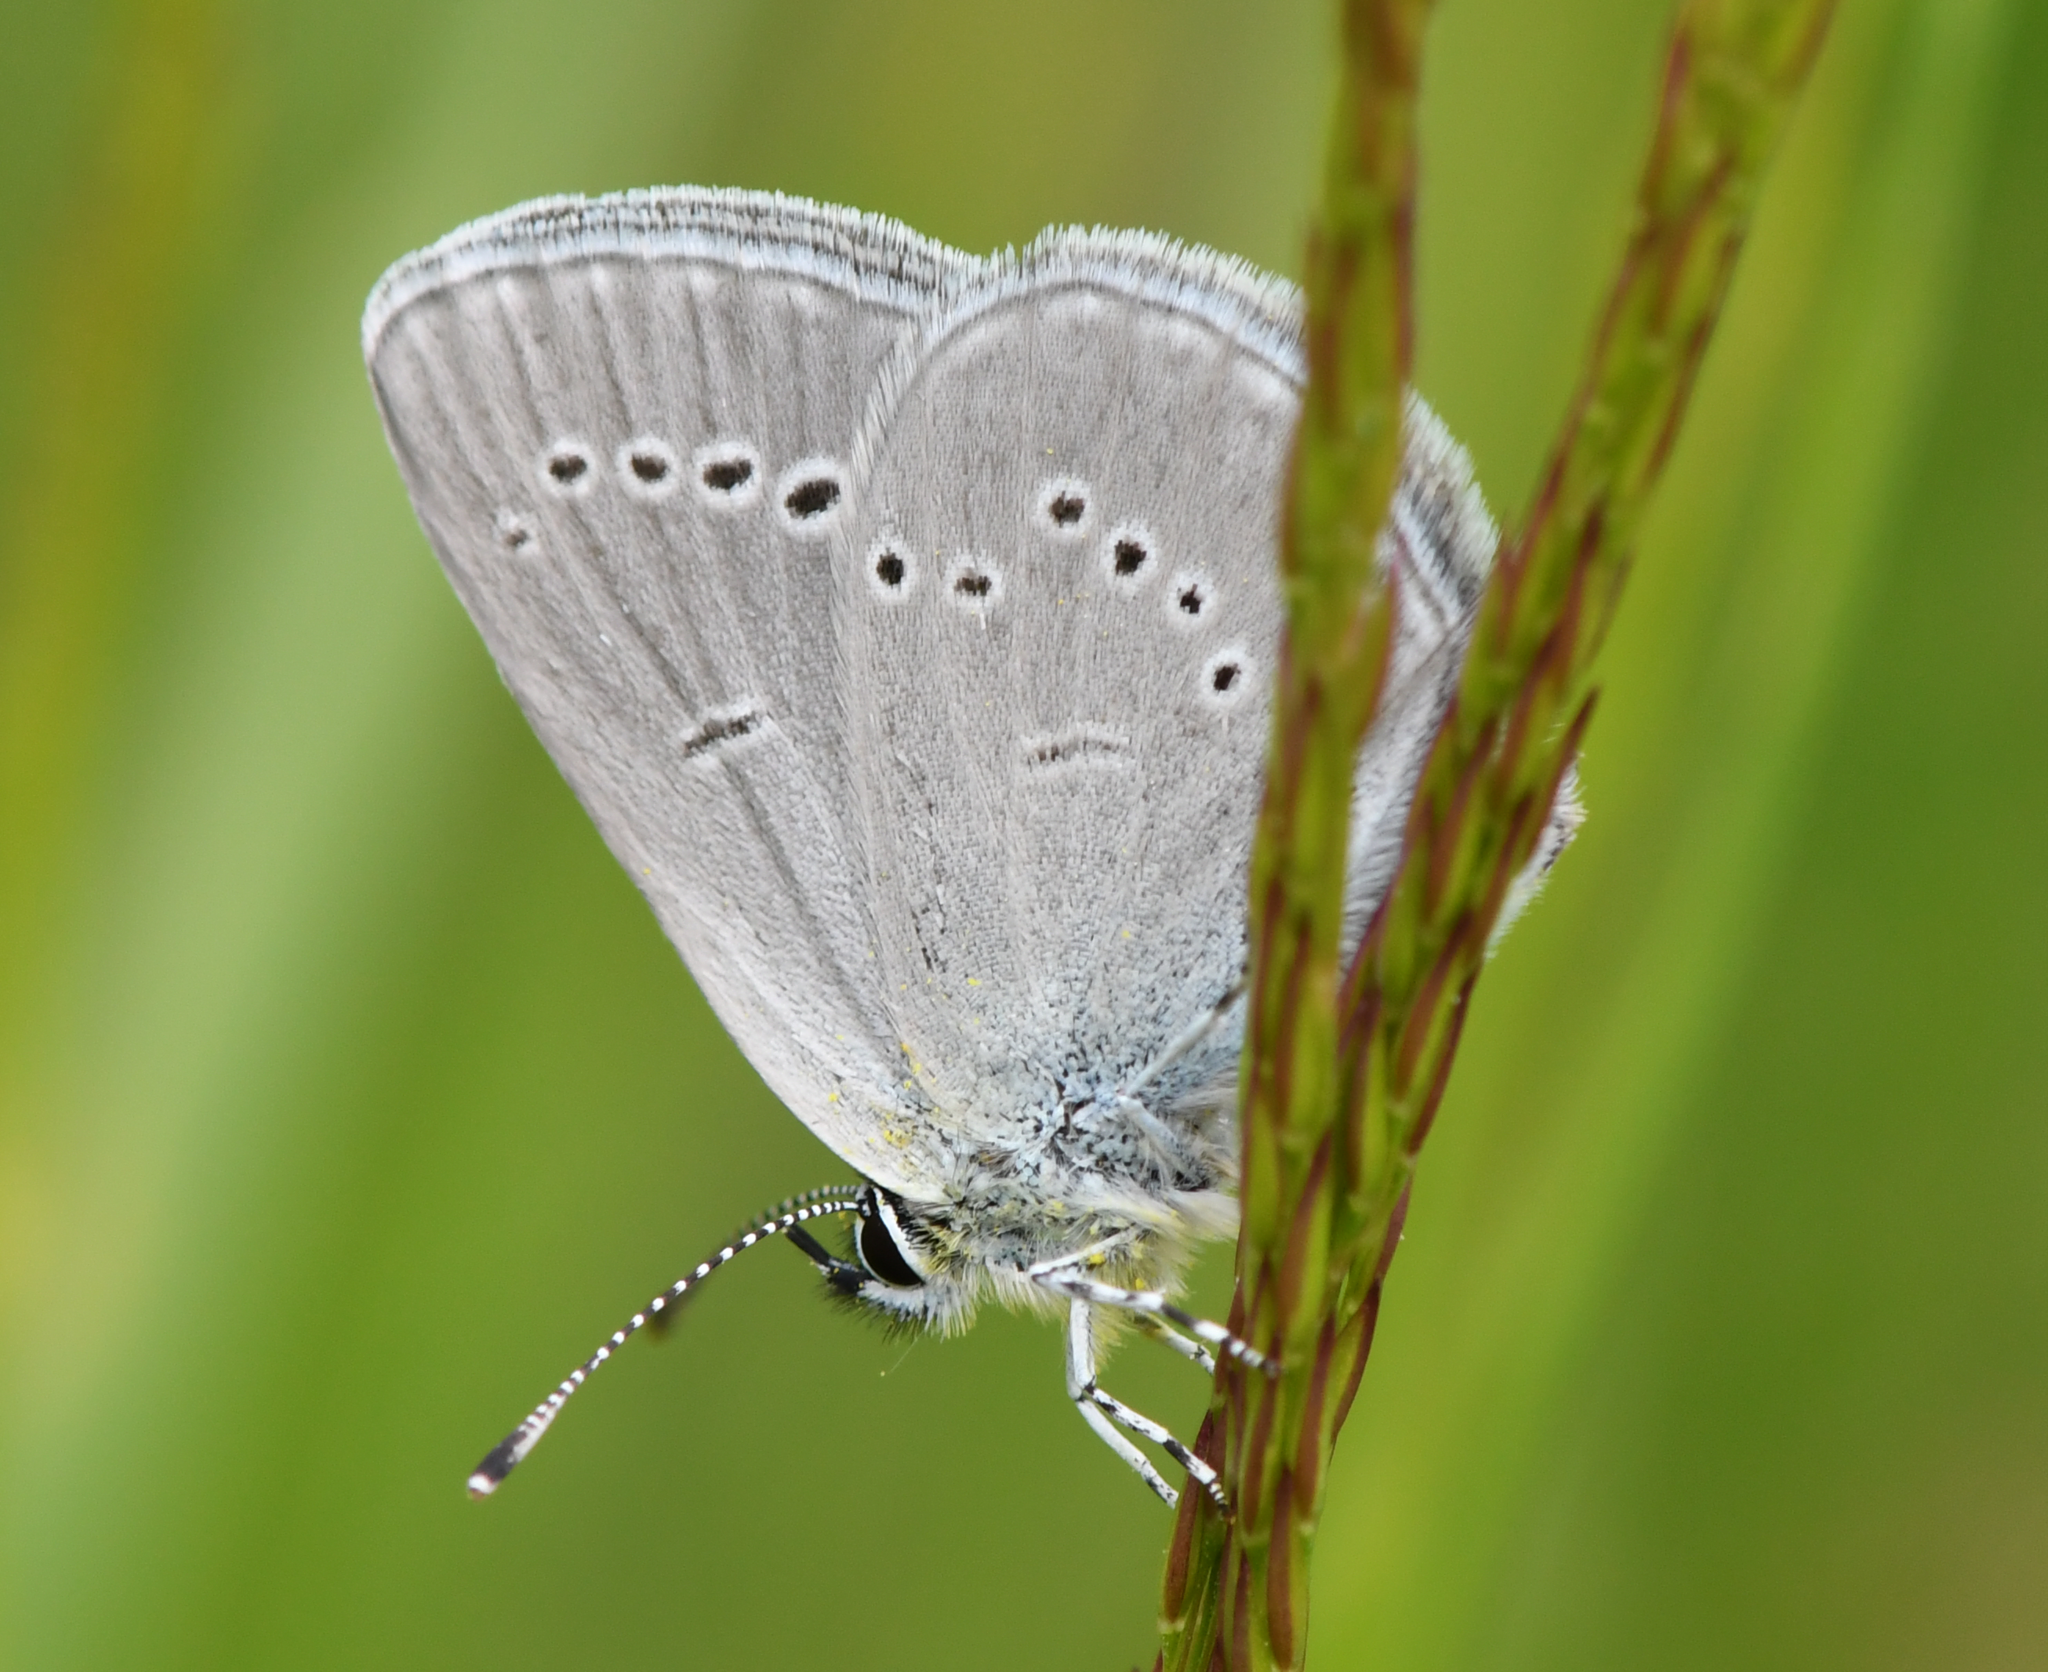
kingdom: Animalia
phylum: Arthropoda
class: Insecta
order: Lepidoptera
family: Lycaenidae
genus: Cupido
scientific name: Cupido minimus
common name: Small blue
